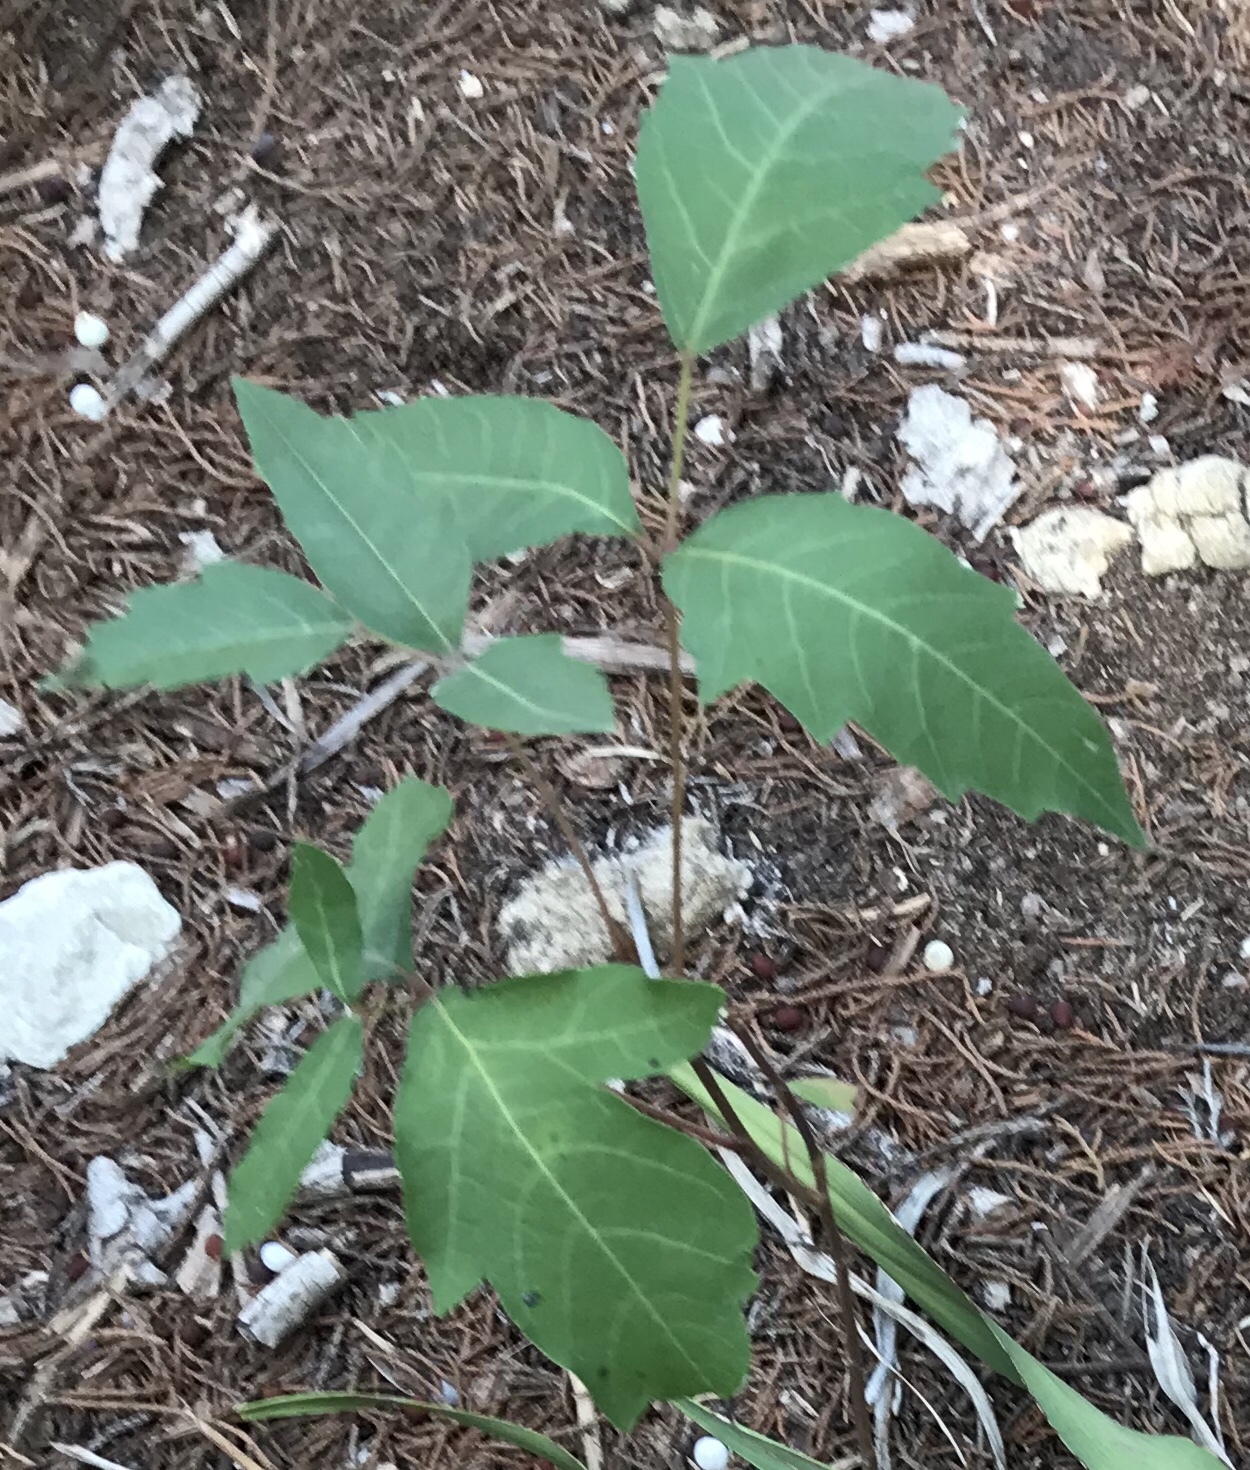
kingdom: Plantae
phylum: Tracheophyta
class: Magnoliopsida
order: Sapindales
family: Anacardiaceae
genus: Toxicodendron
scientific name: Toxicodendron radicans
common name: Poison ivy
